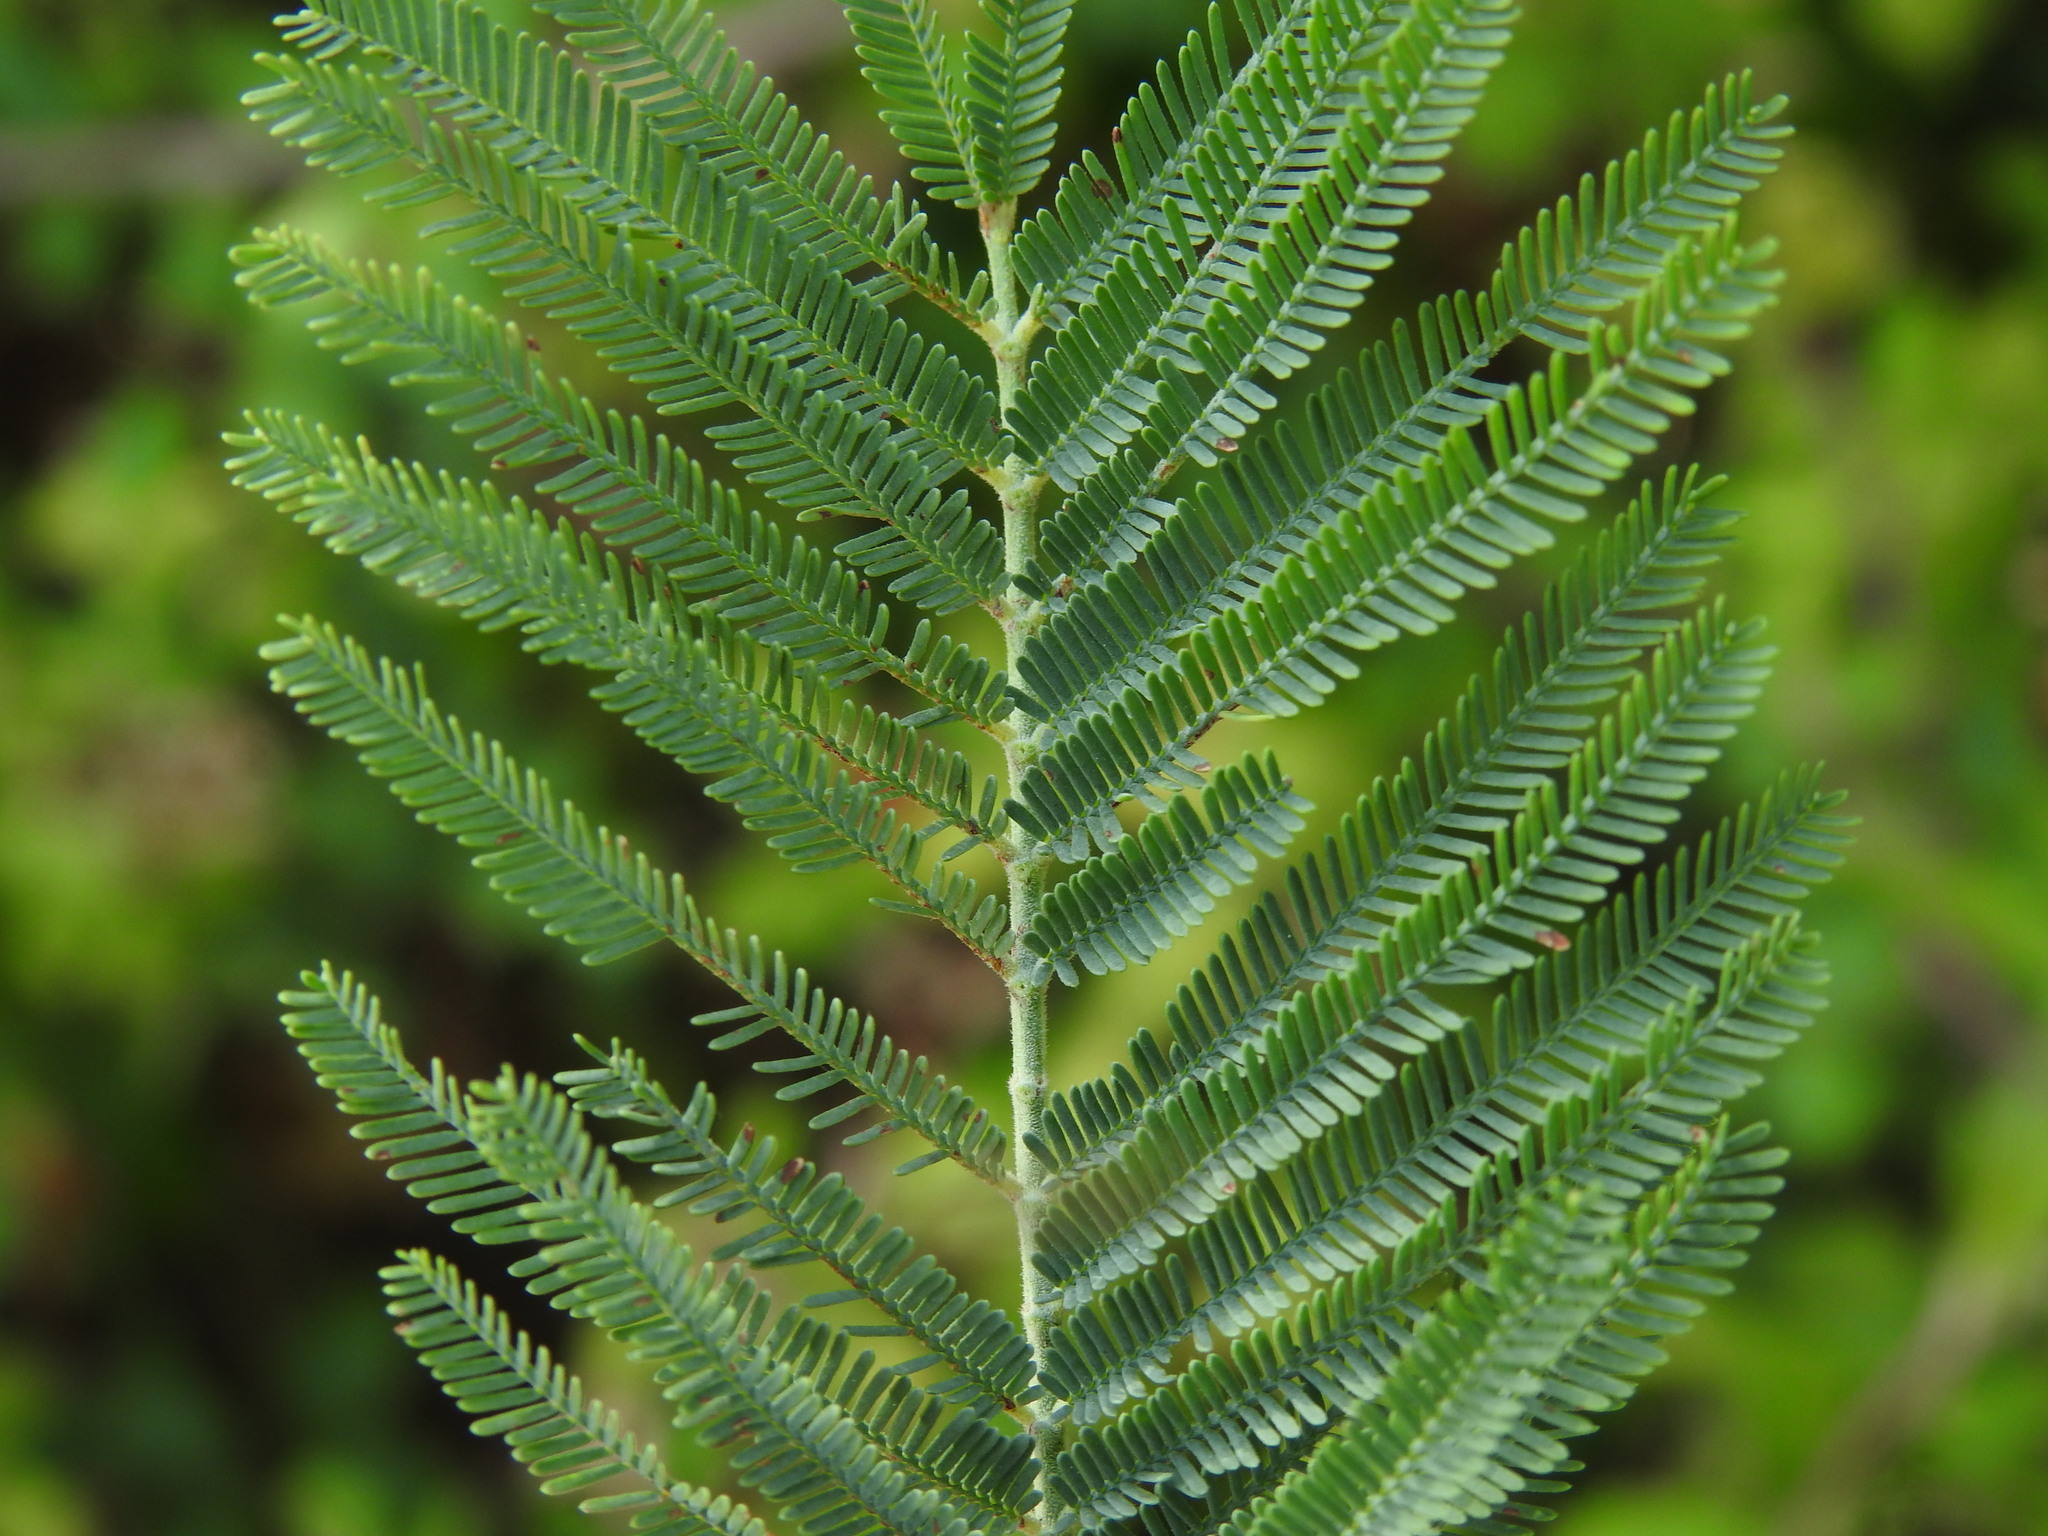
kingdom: Plantae
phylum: Tracheophyta
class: Magnoliopsida
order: Fabales
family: Fabaceae
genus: Acacia
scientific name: Acacia dealbata
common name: Silver wattle
